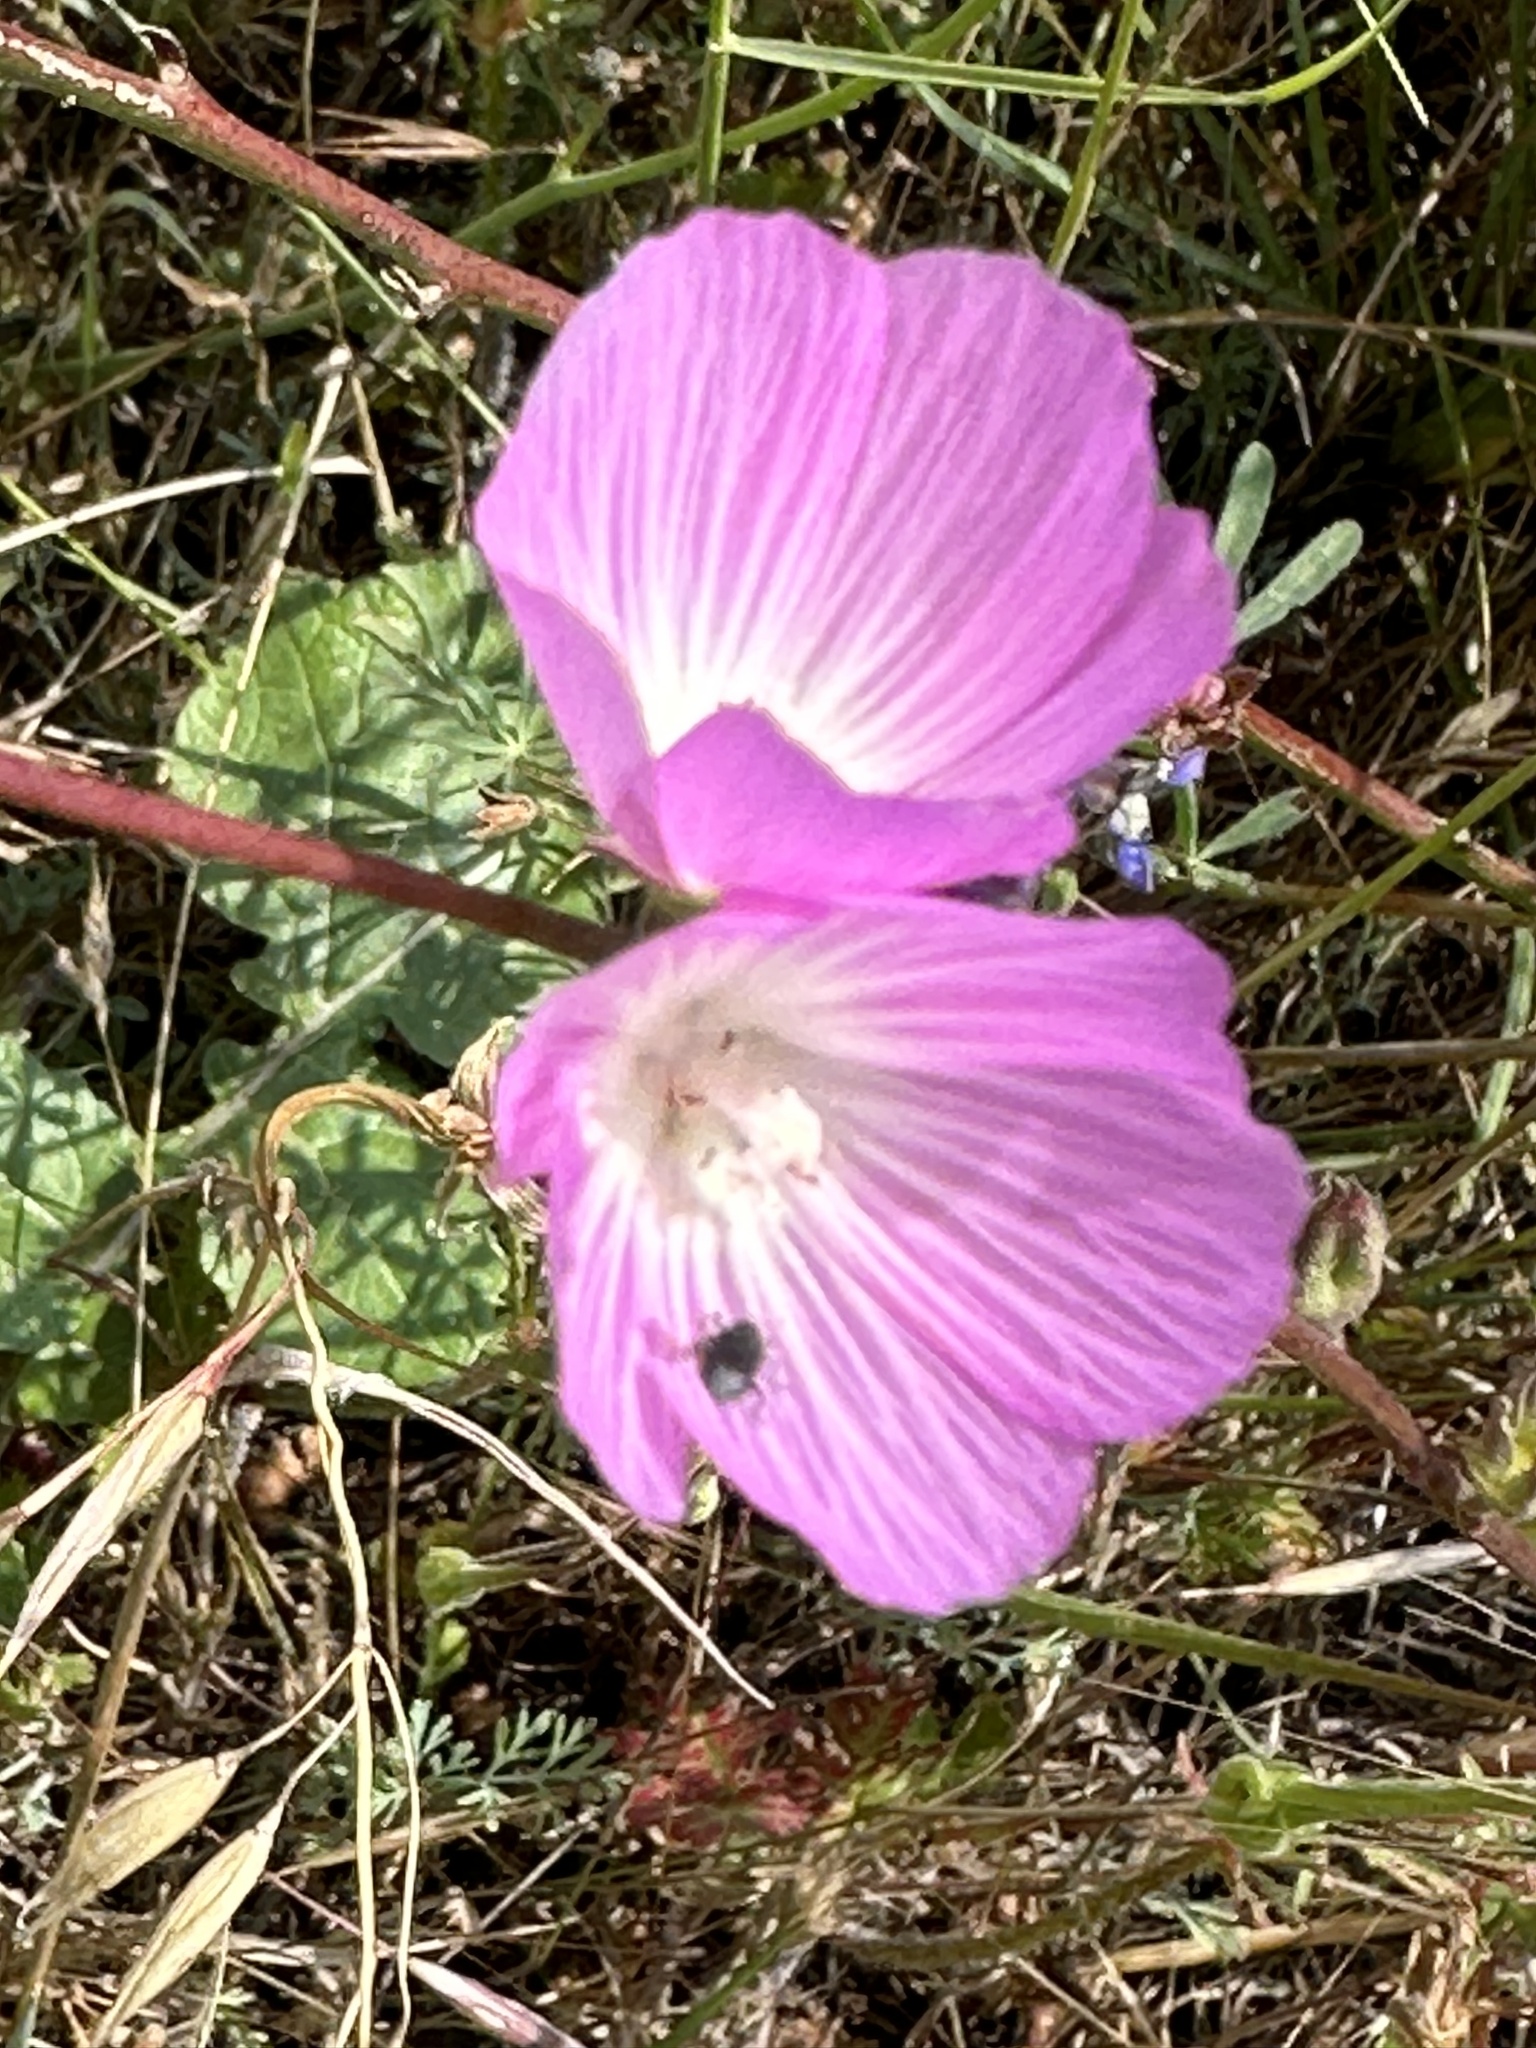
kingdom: Plantae
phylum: Tracheophyta
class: Magnoliopsida
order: Malvales
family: Malvaceae
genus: Sidalcea
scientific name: Sidalcea sparsifolia
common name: Southern checkerbloom
